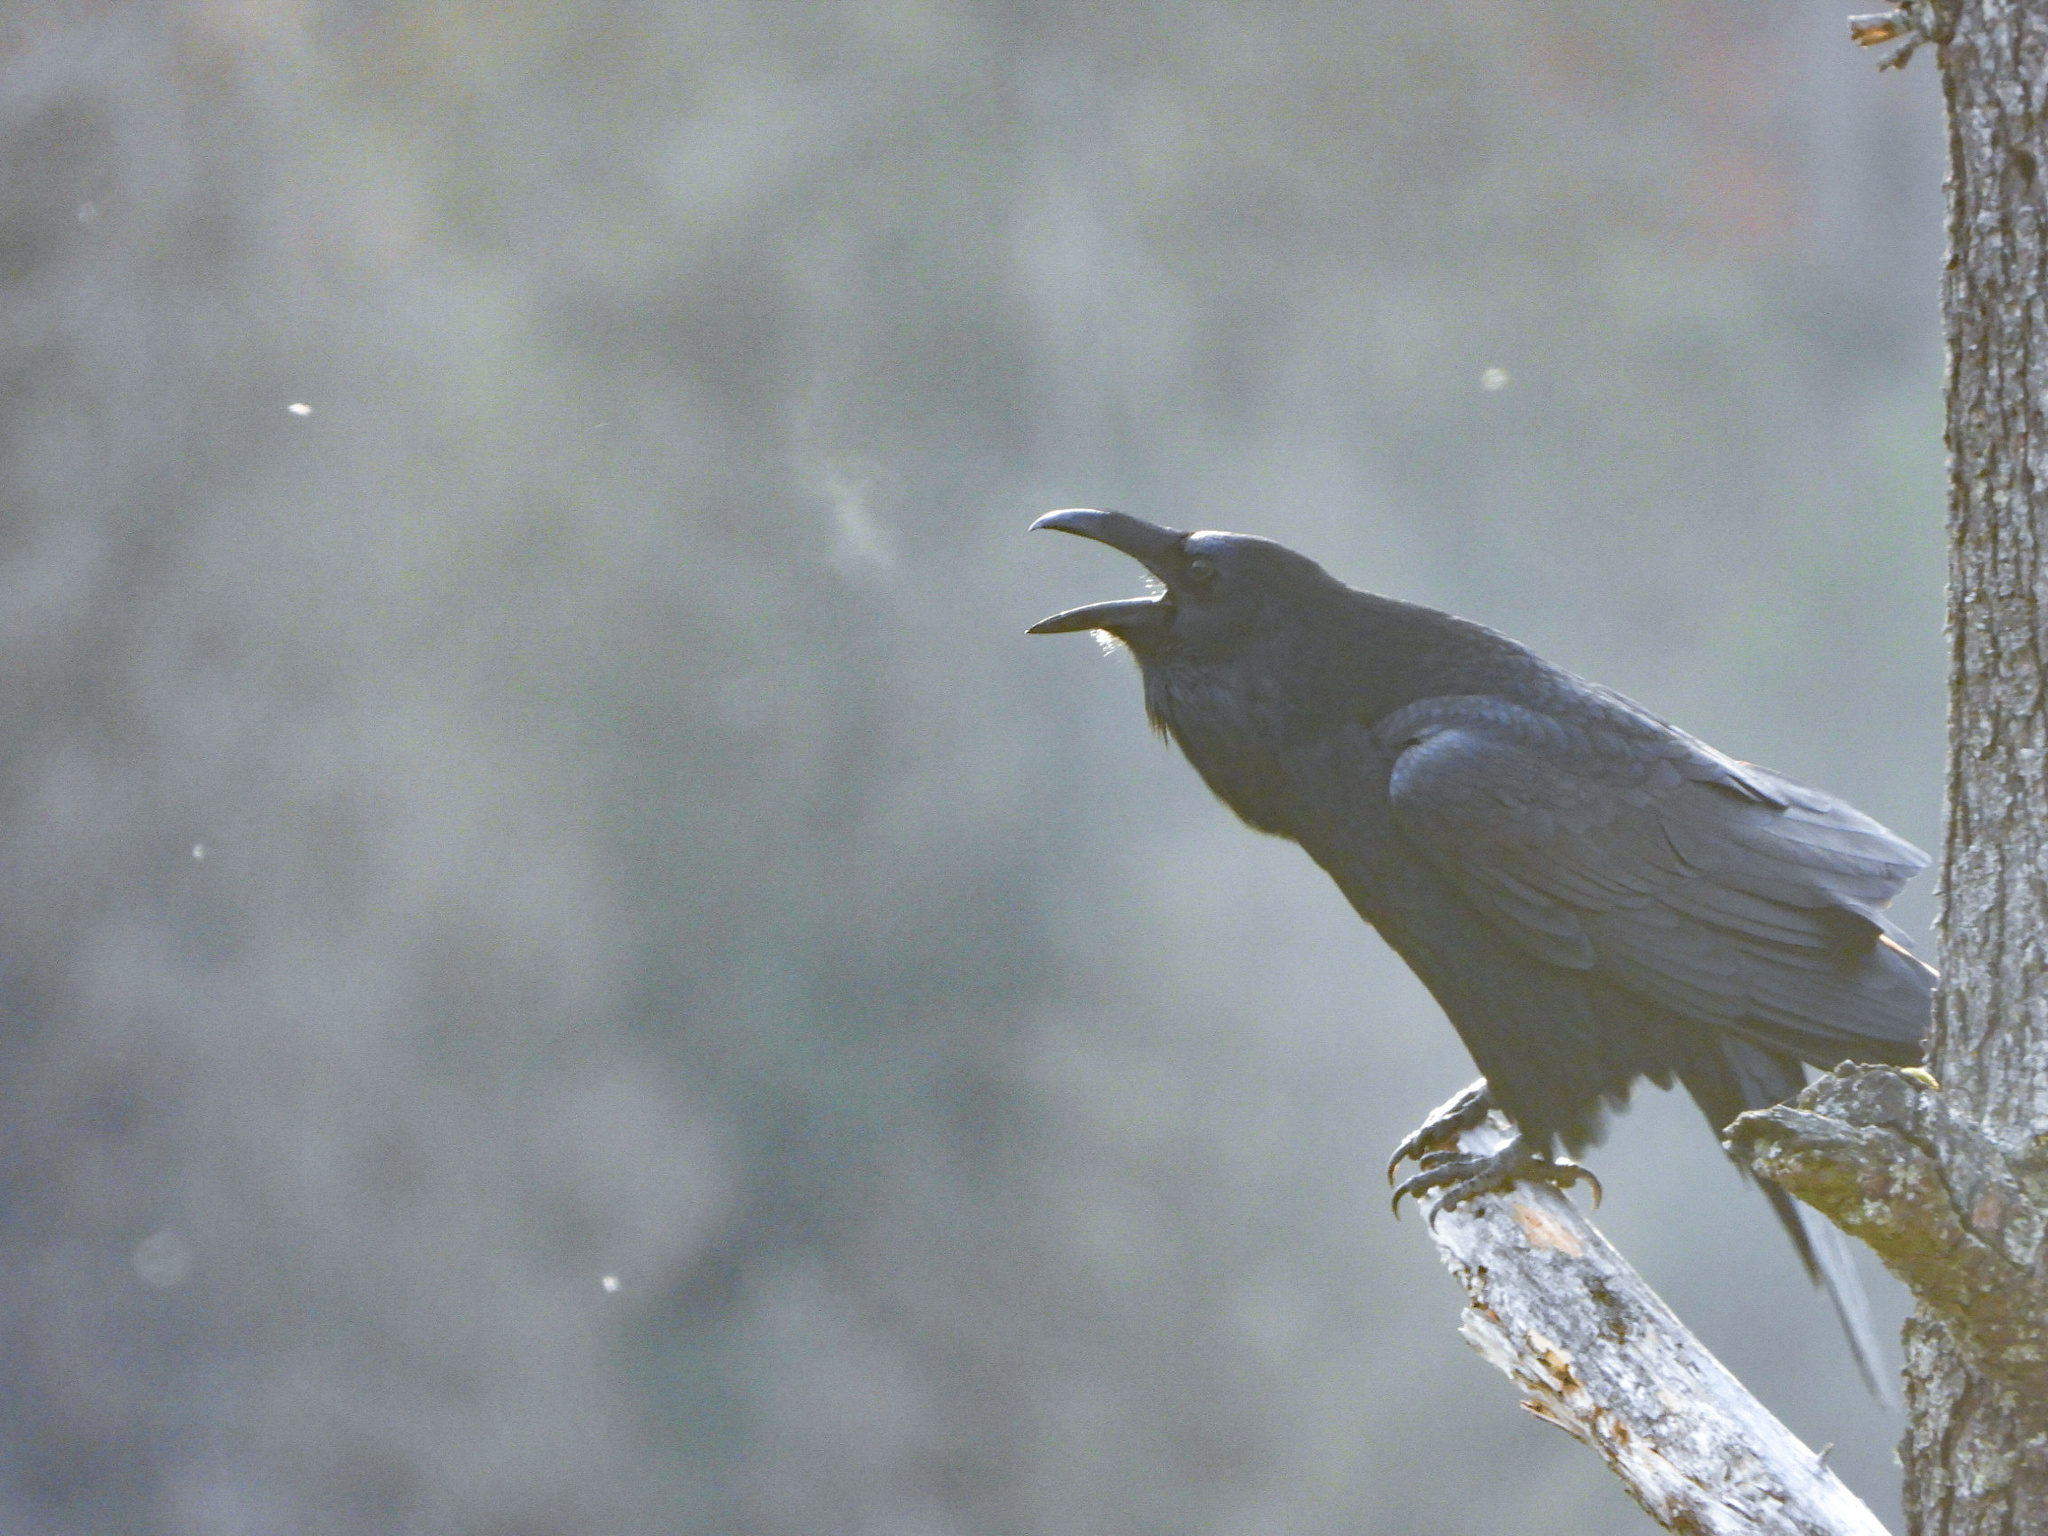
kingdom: Animalia
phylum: Chordata
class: Aves
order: Passeriformes
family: Corvidae
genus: Corvus
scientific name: Corvus corax
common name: Common raven
